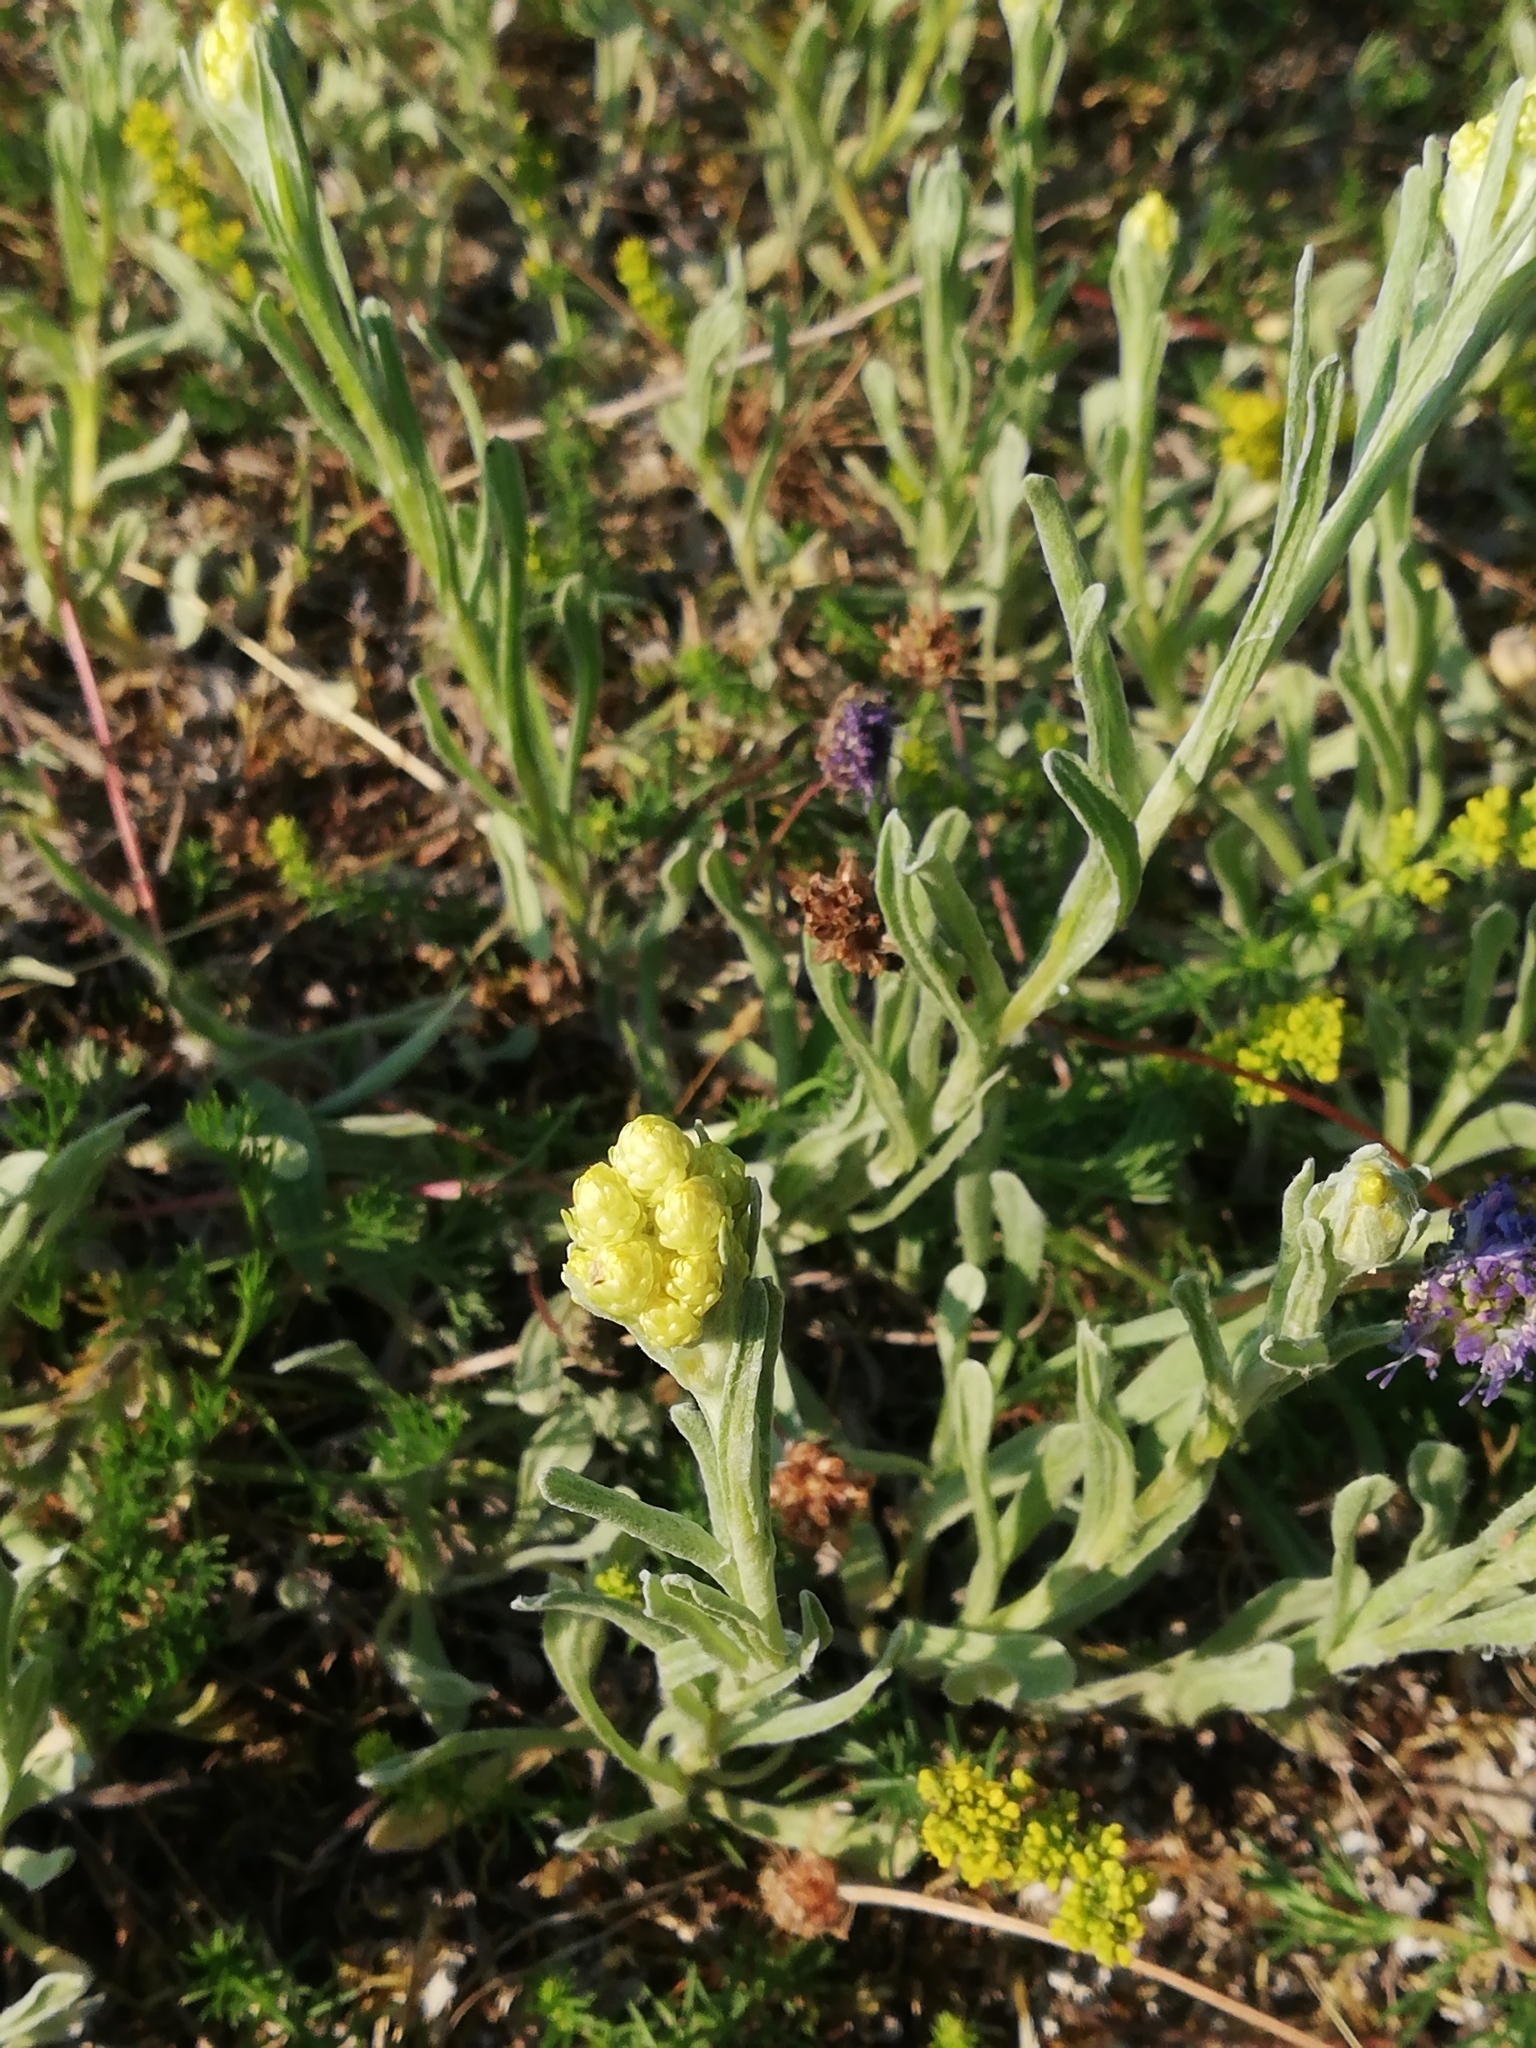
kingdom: Plantae
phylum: Tracheophyta
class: Magnoliopsida
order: Asterales
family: Asteraceae
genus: Helichrysum
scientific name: Helichrysum arenarium
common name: Strawflower
